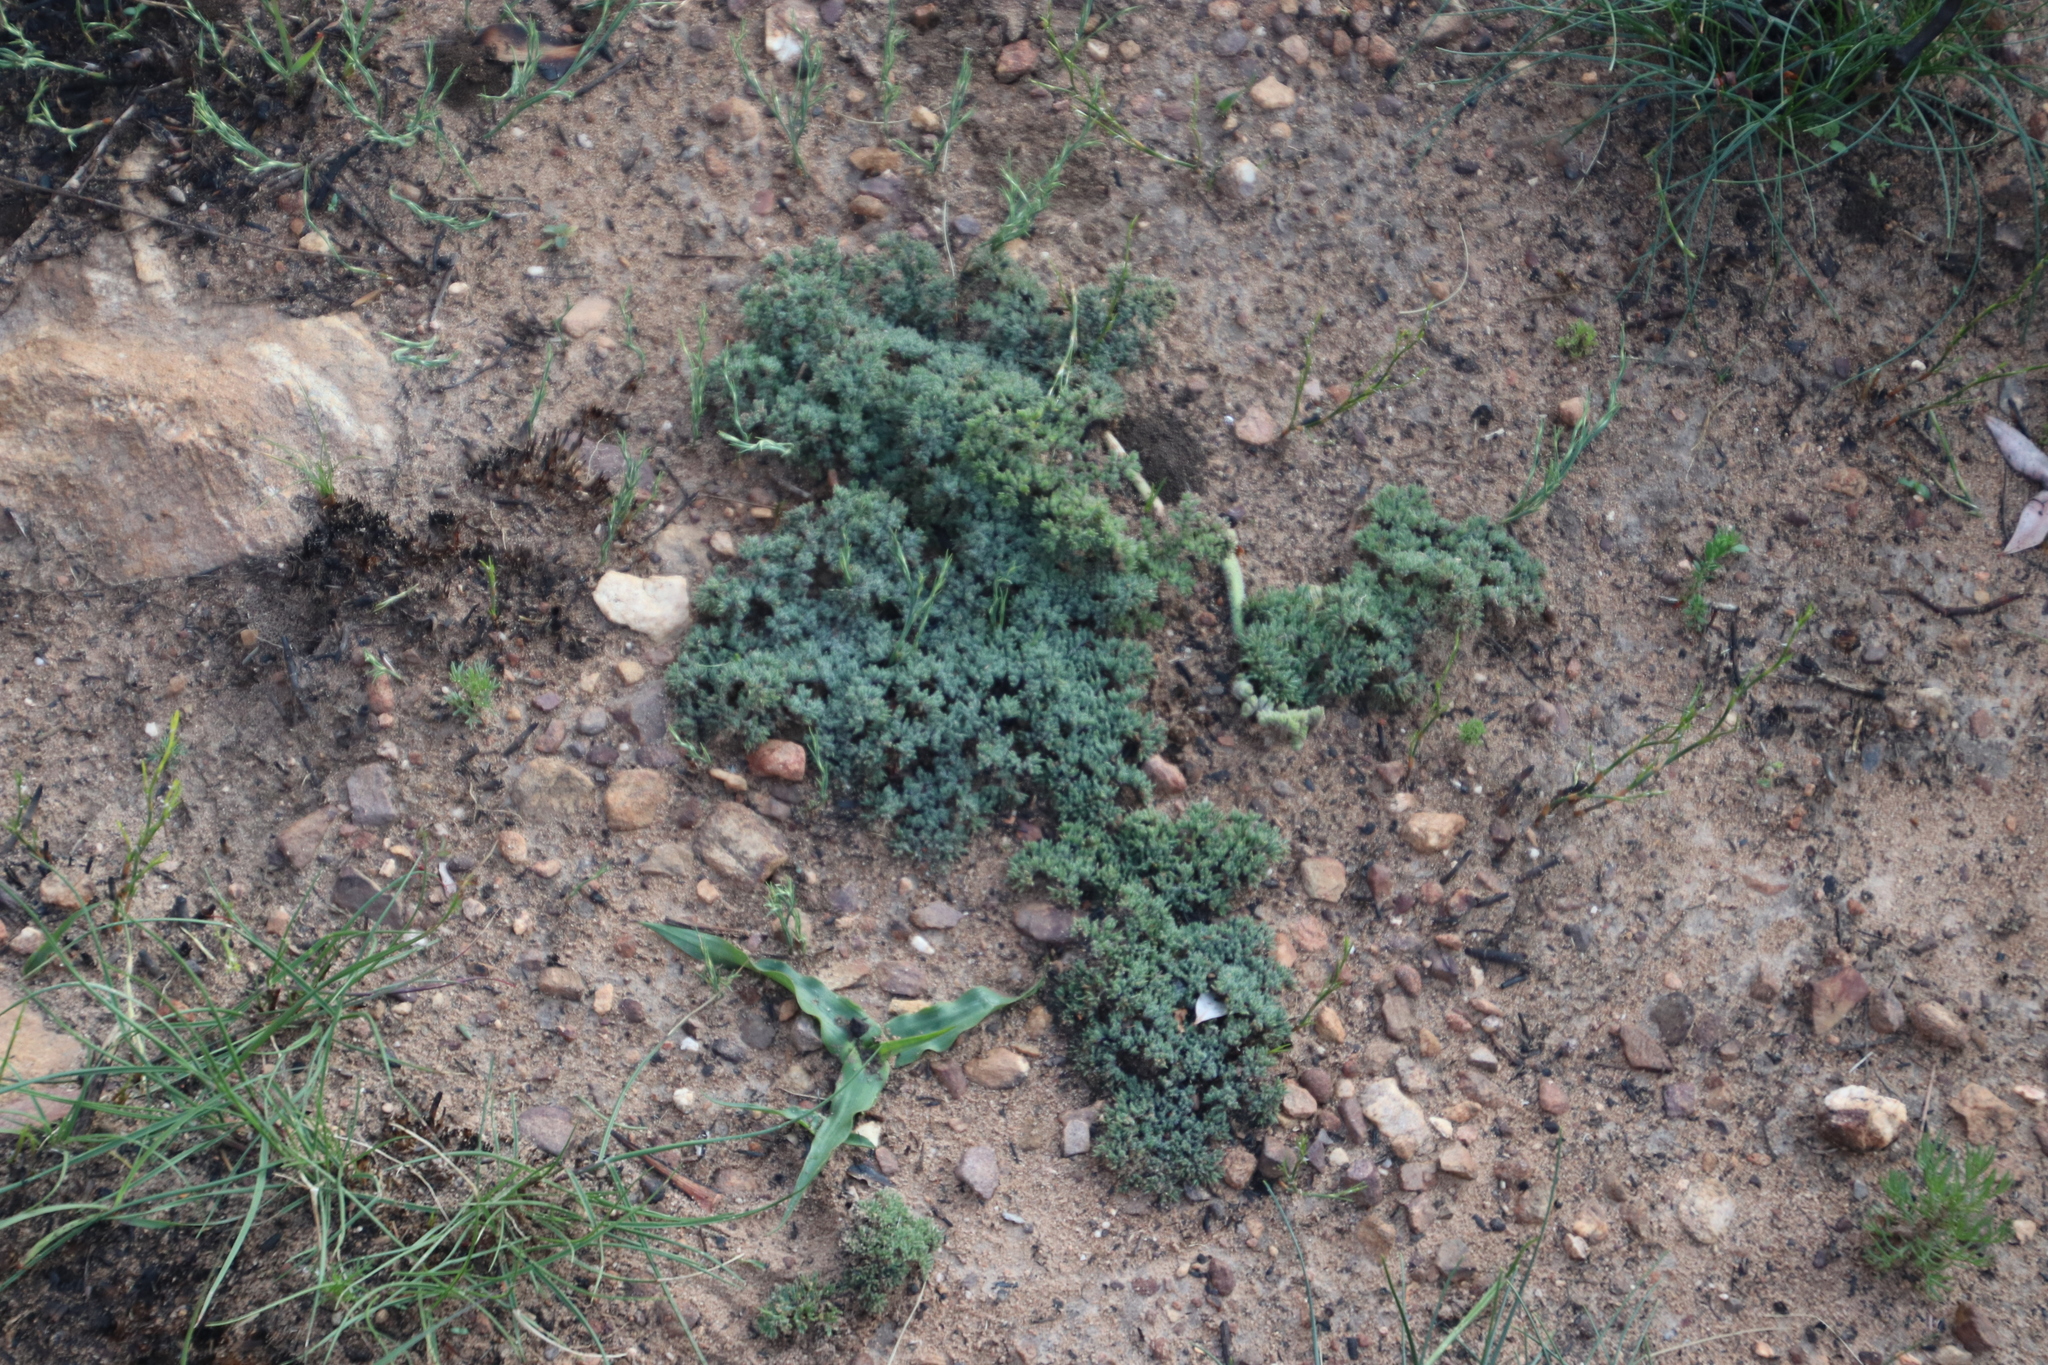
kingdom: Plantae
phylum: Tracheophyta
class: Magnoliopsida
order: Geraniales
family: Geraniaceae
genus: Pelargonium
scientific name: Pelargonium triste
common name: Night-scent pelargonium
